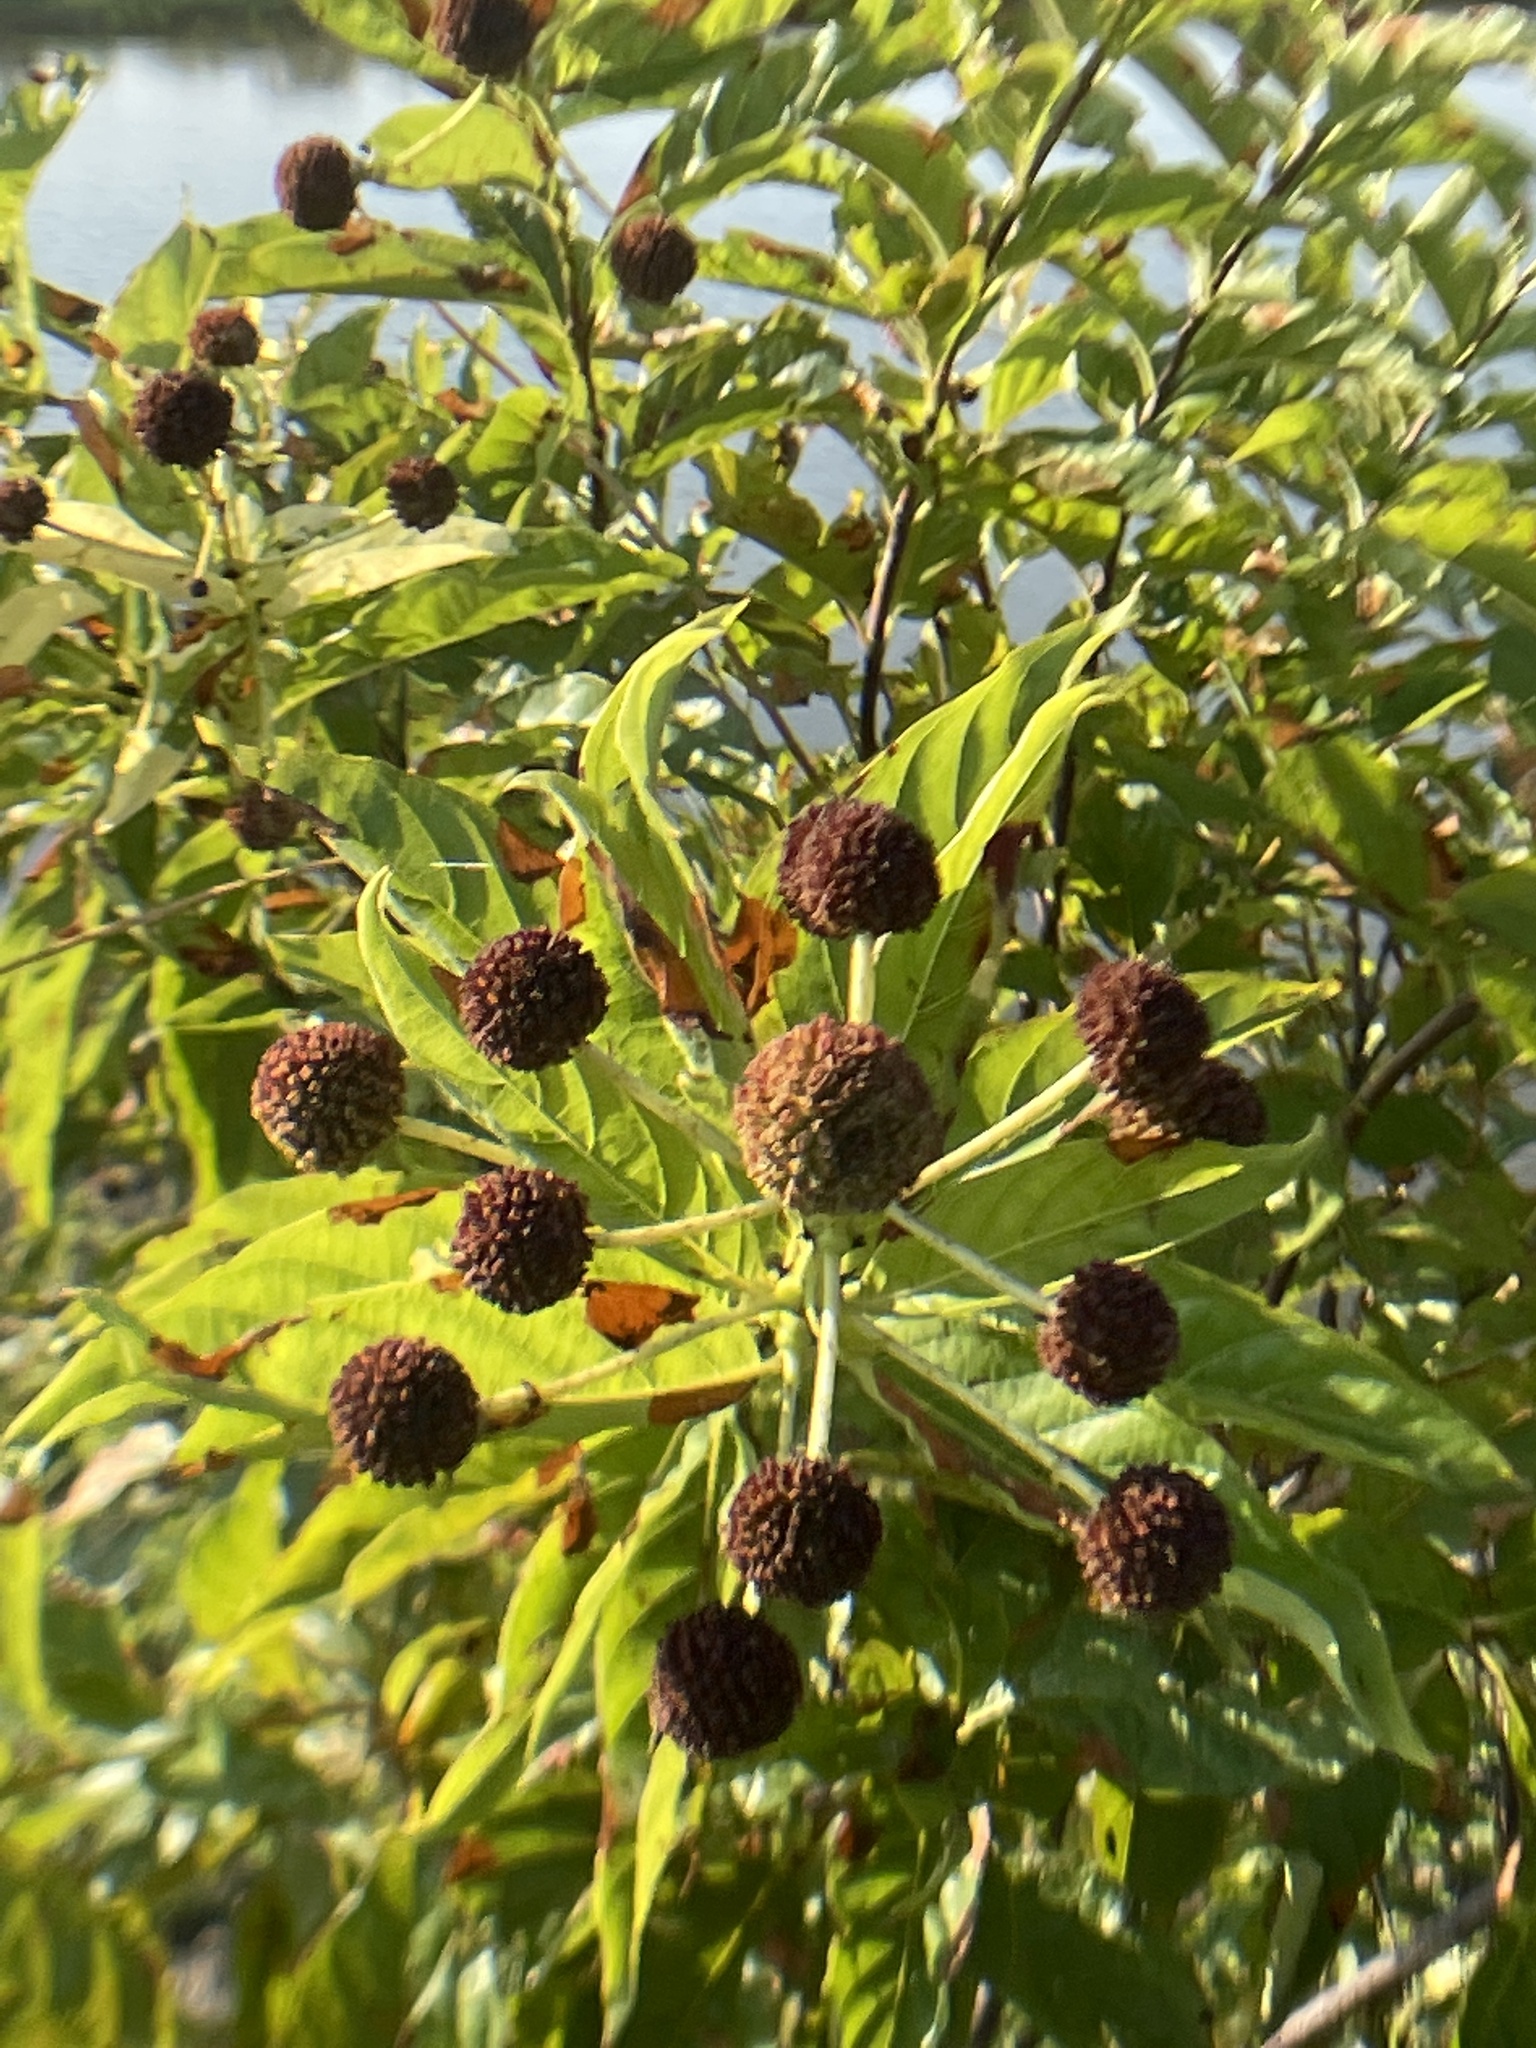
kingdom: Plantae
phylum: Tracheophyta
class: Magnoliopsida
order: Gentianales
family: Rubiaceae
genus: Cephalanthus
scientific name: Cephalanthus occidentalis
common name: Button-willow
